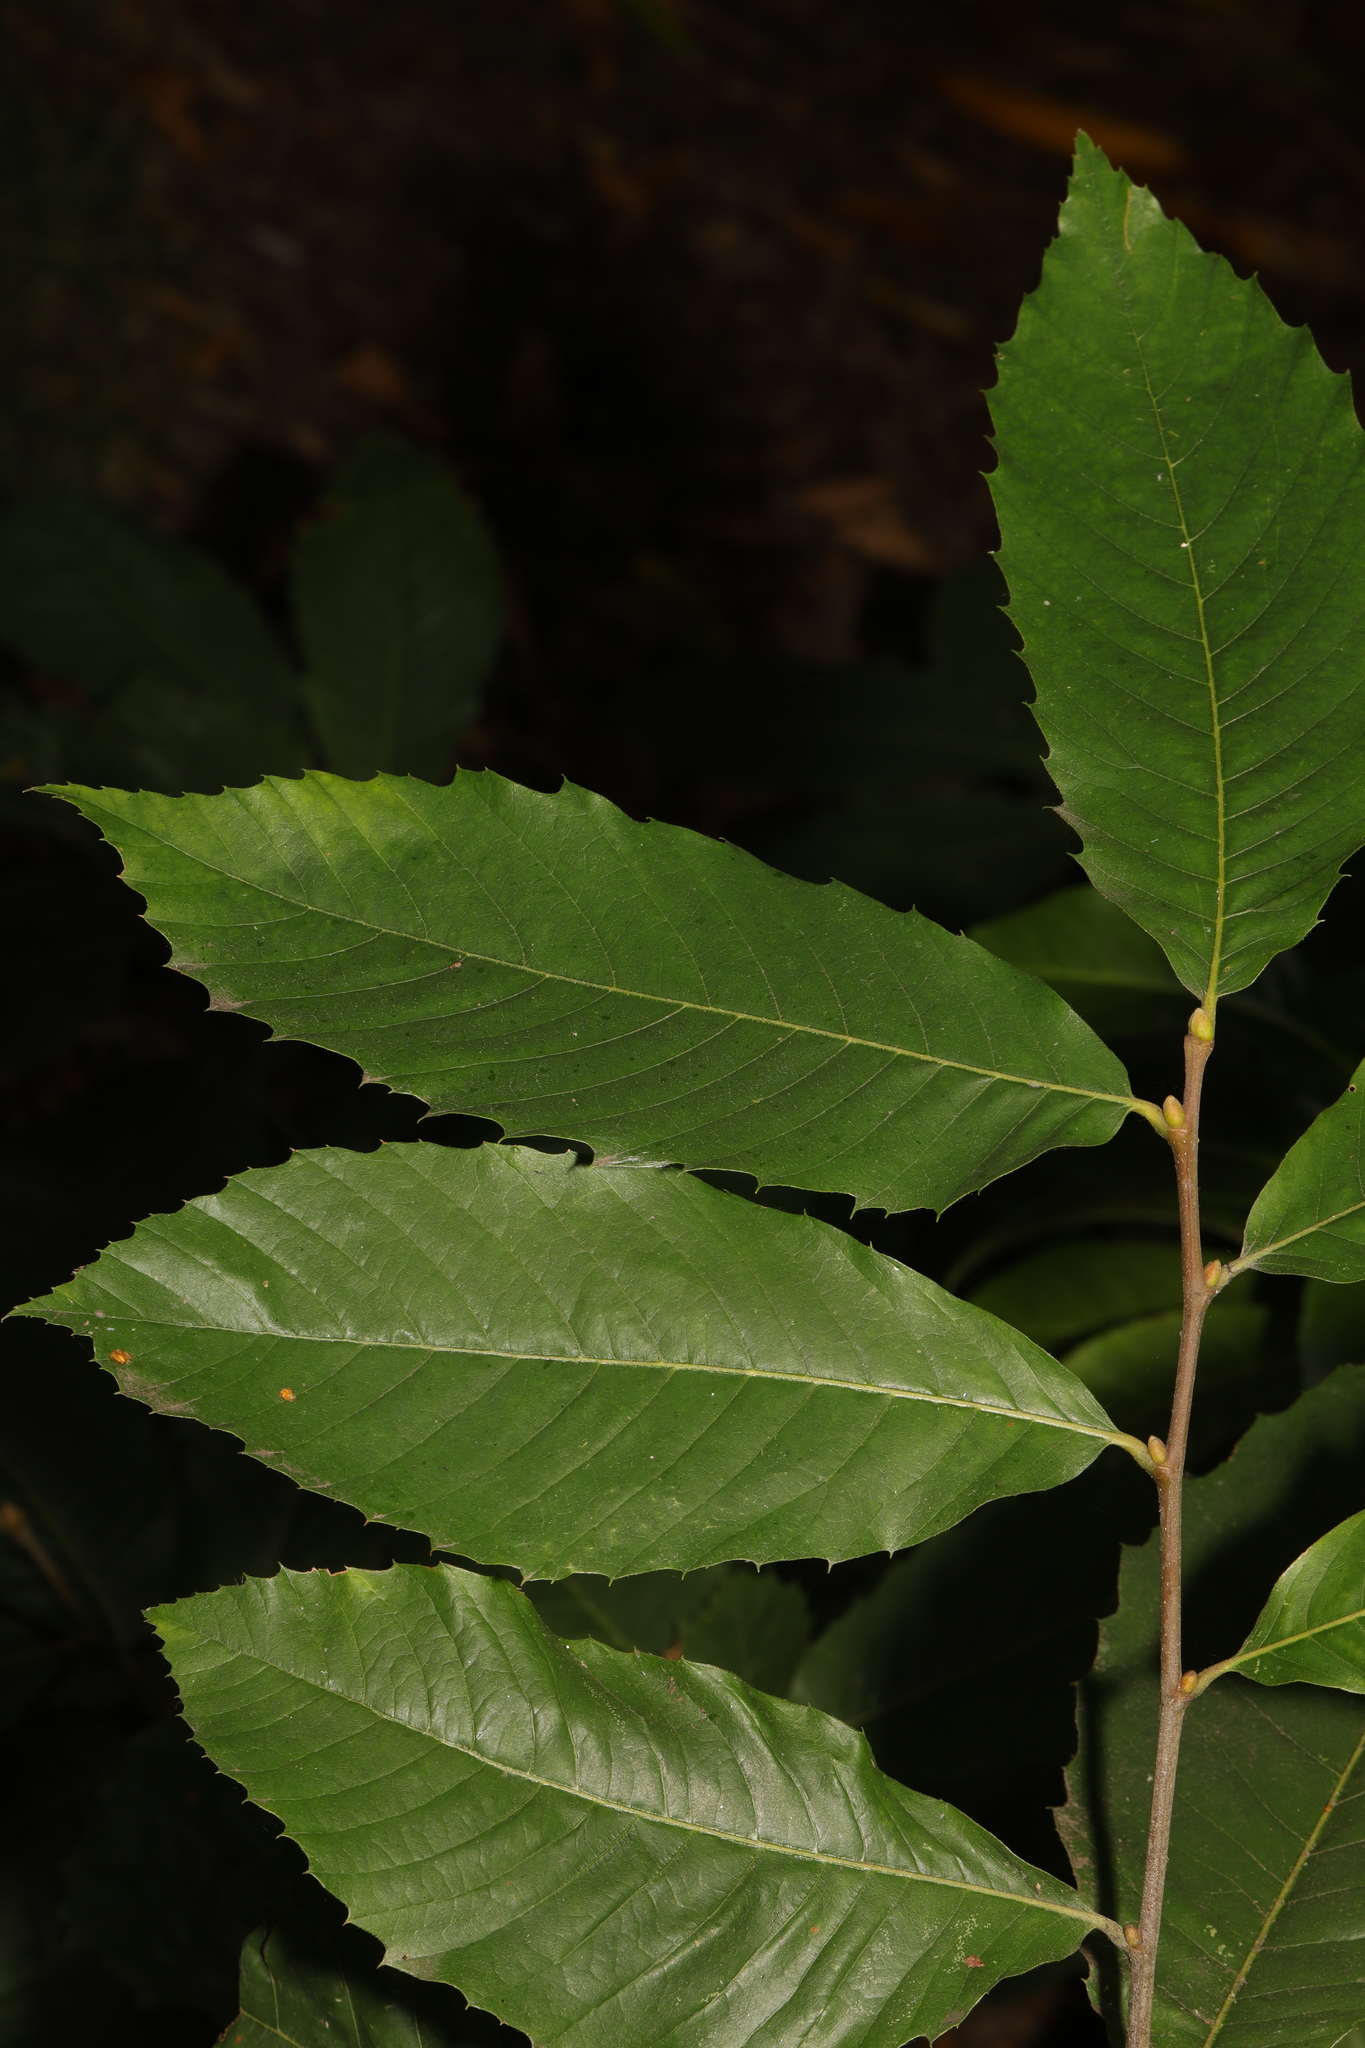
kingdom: Plantae
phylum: Tracheophyta
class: Magnoliopsida
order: Fagales
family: Fagaceae
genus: Castanea
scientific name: Castanea sativa
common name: Sweet chestnut
